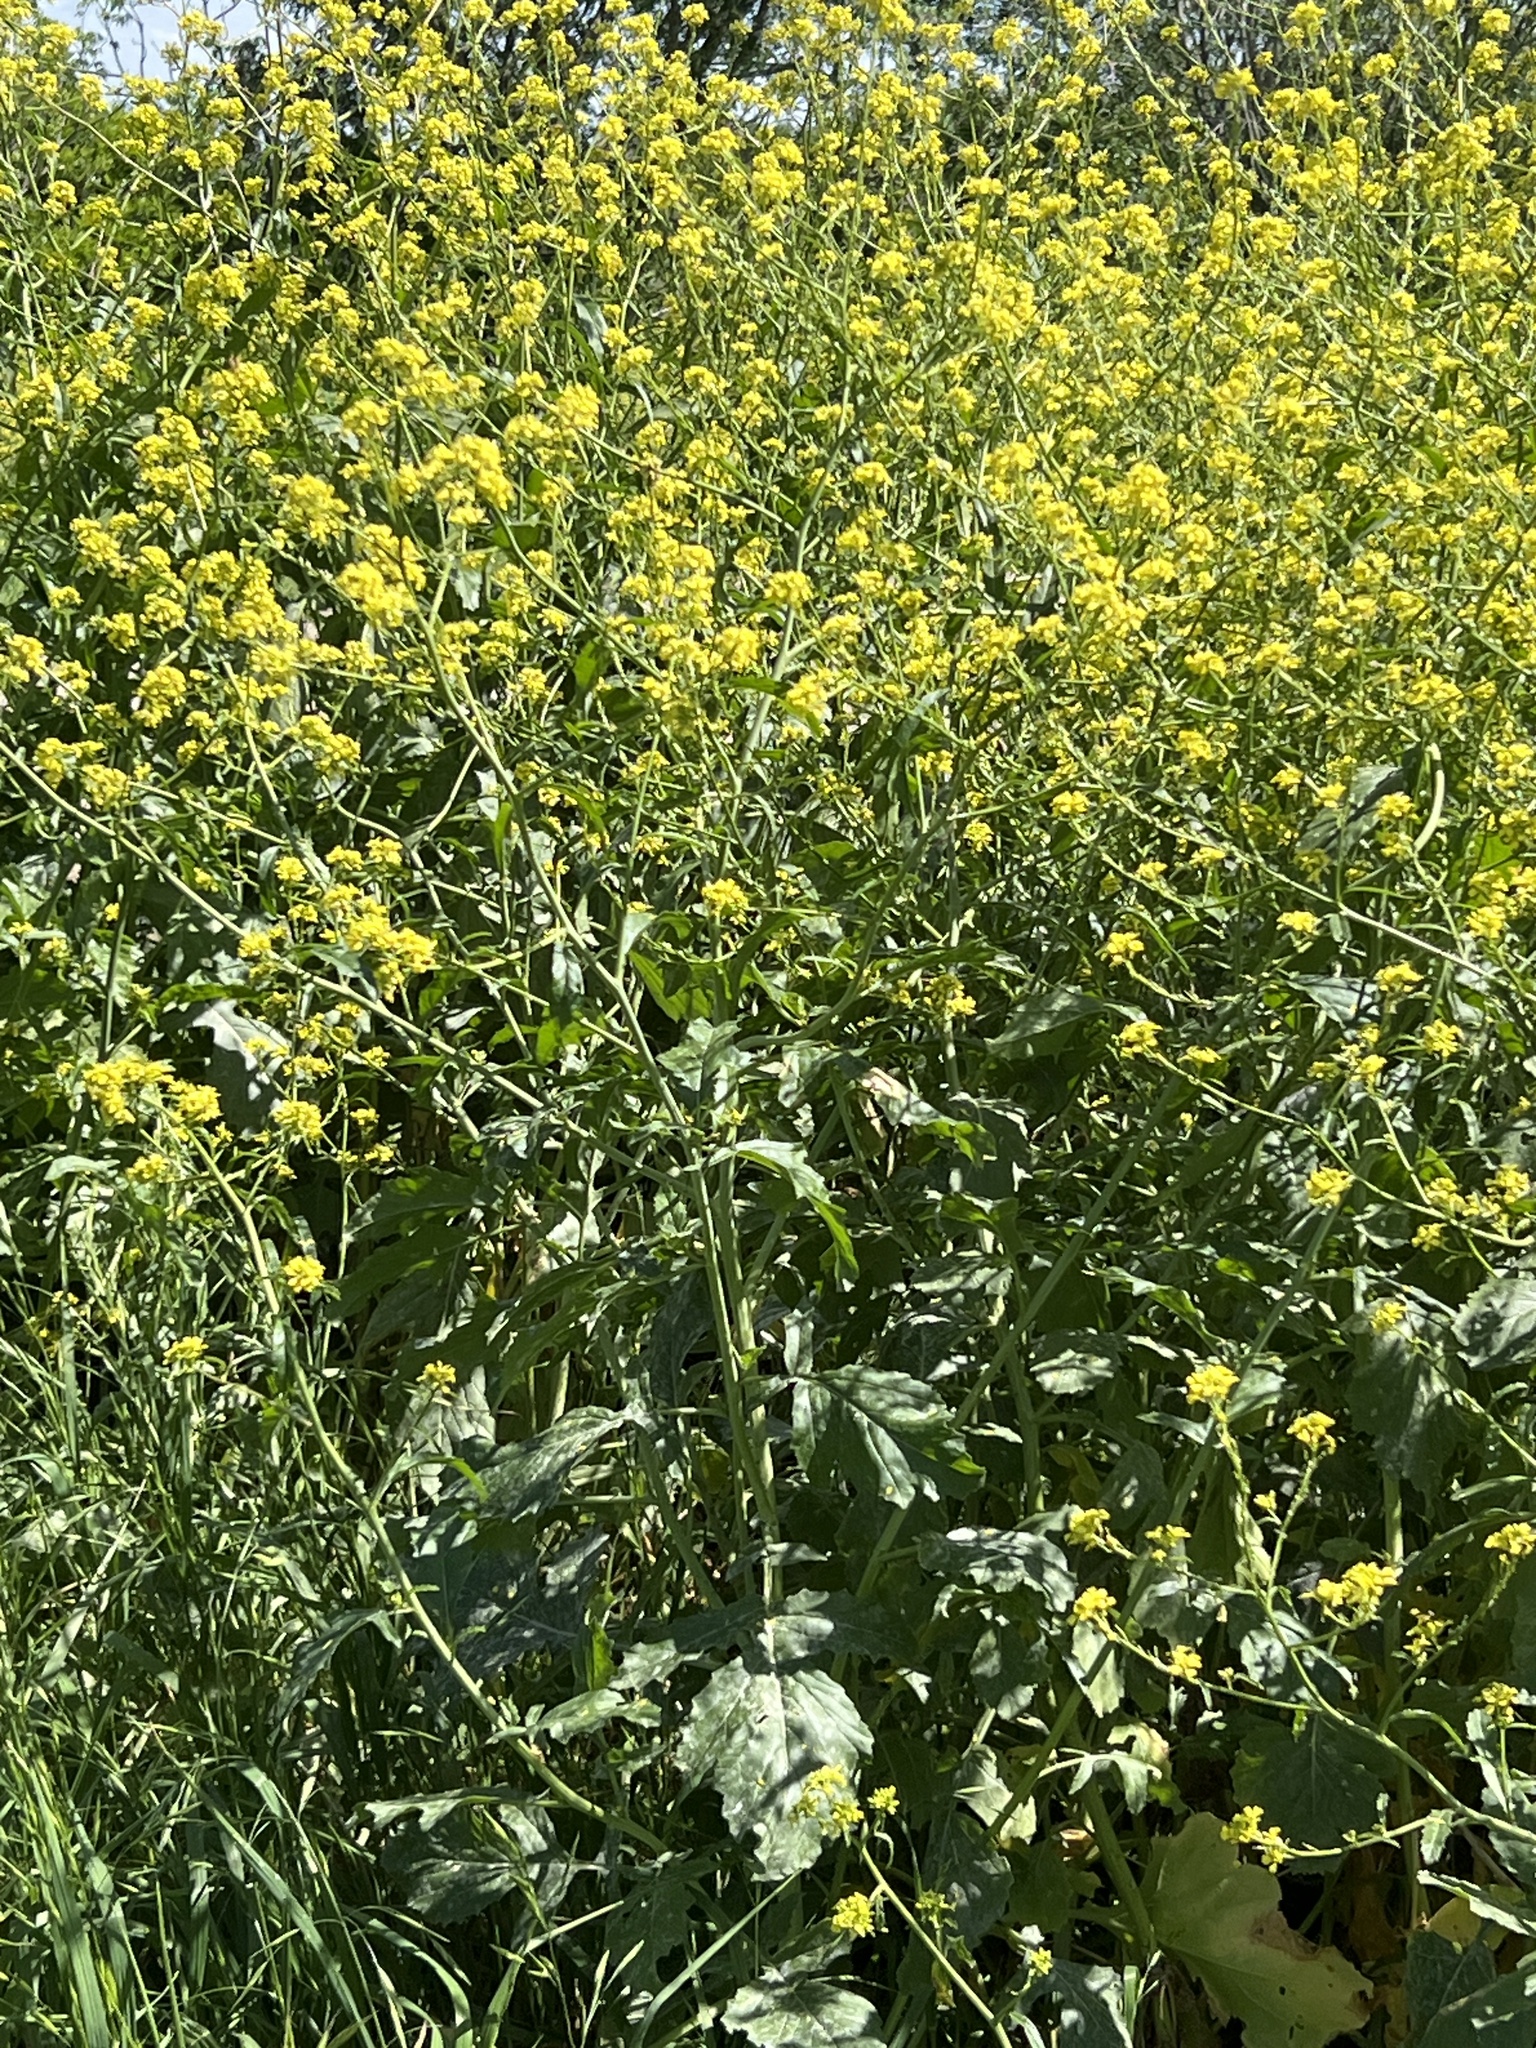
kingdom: Plantae
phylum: Tracheophyta
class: Magnoliopsida
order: Brassicales
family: Brassicaceae
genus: Rapistrum
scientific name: Rapistrum rugosum
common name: Annual bastardcabbage
